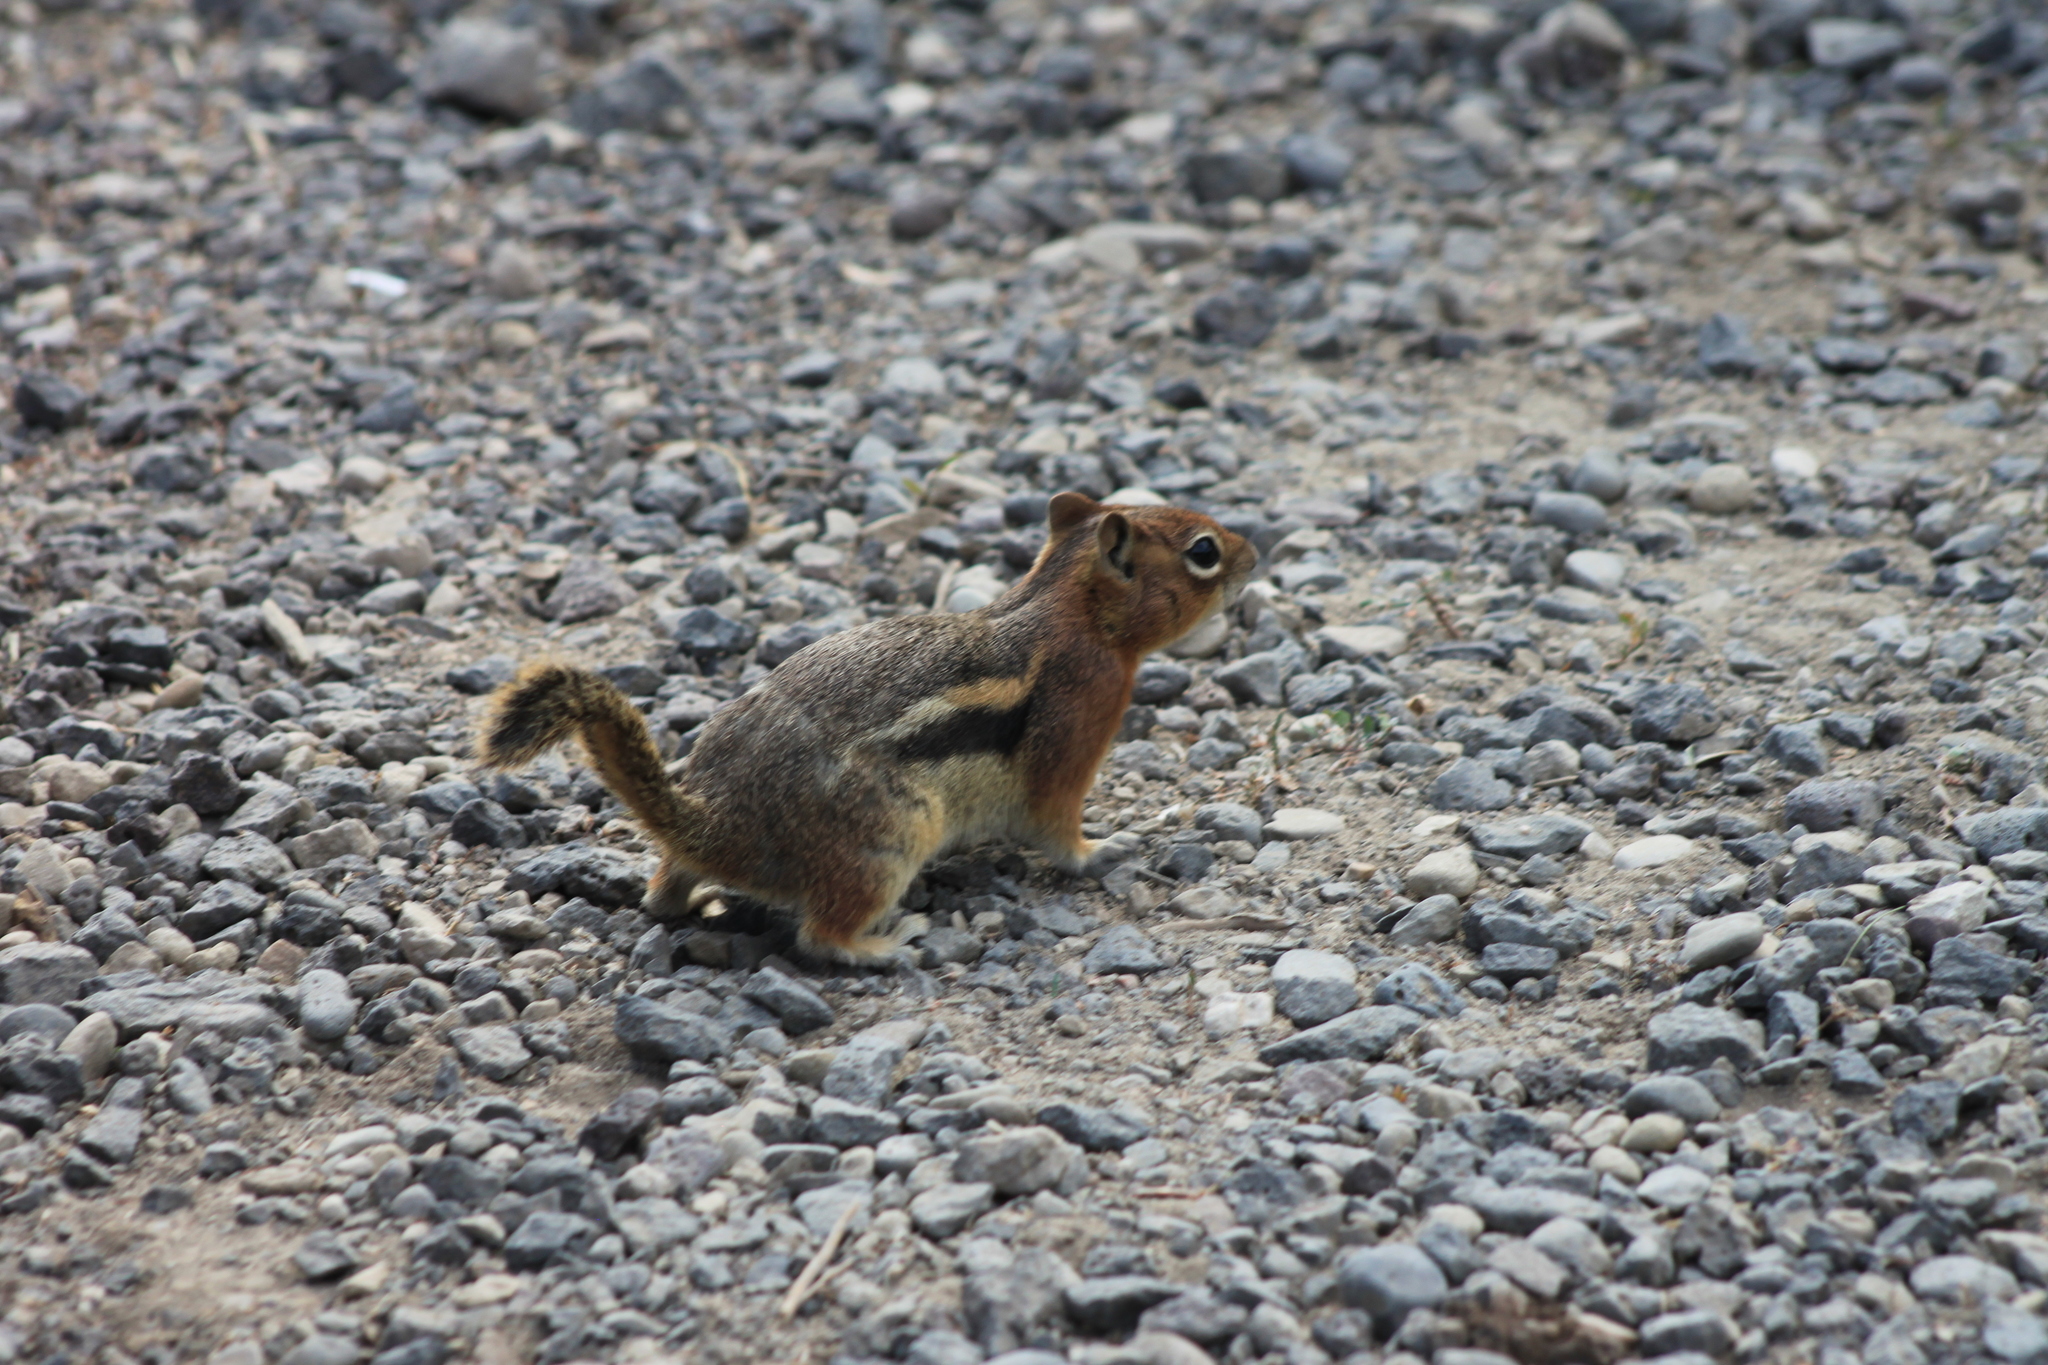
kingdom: Animalia
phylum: Chordata
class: Mammalia
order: Rodentia
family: Sciuridae
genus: Callospermophilus
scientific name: Callospermophilus lateralis
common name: Golden-mantled ground squirrel
